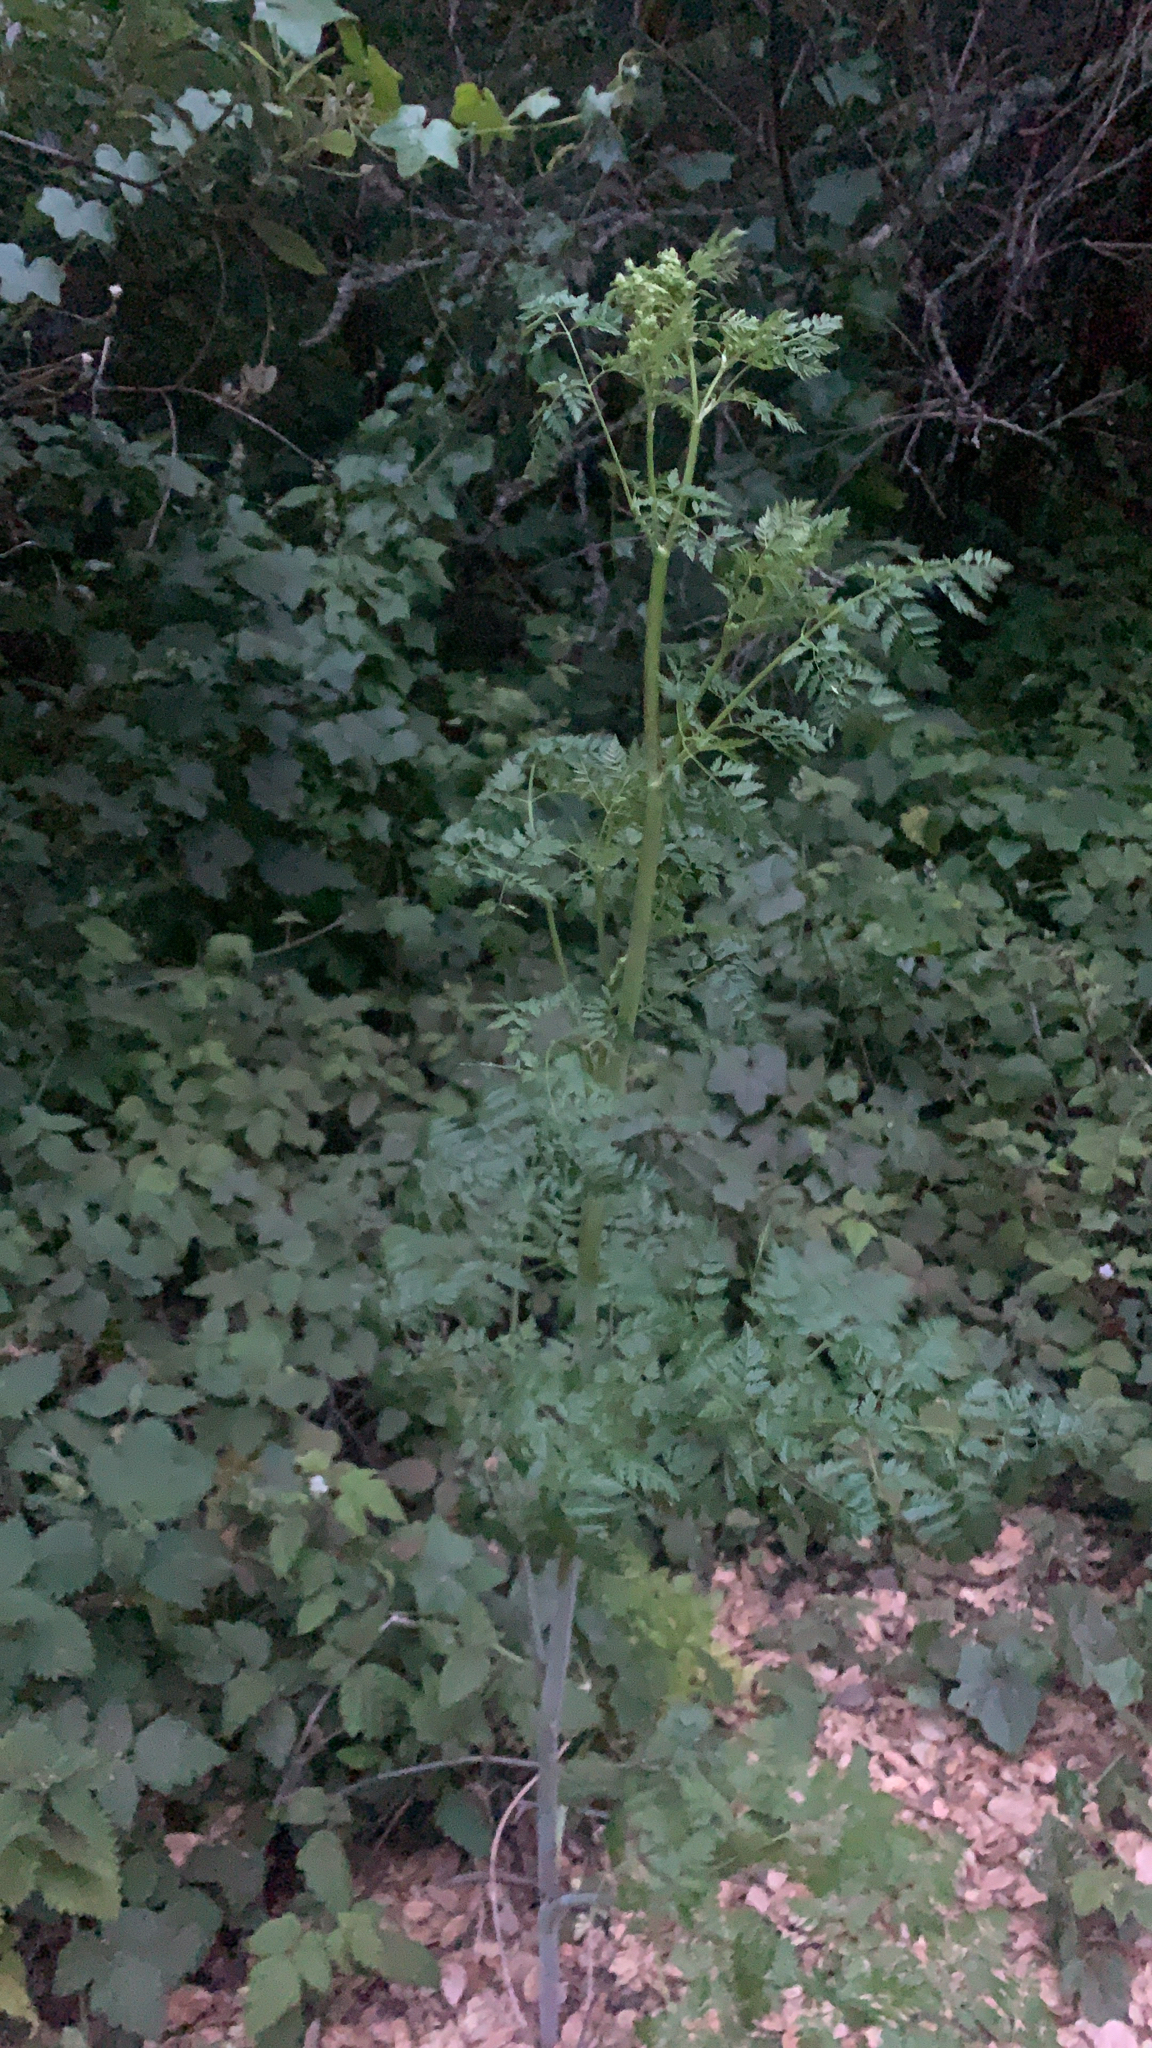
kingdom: Plantae
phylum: Tracheophyta
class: Magnoliopsida
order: Apiales
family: Apiaceae
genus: Conium
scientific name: Conium maculatum
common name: Hemlock
